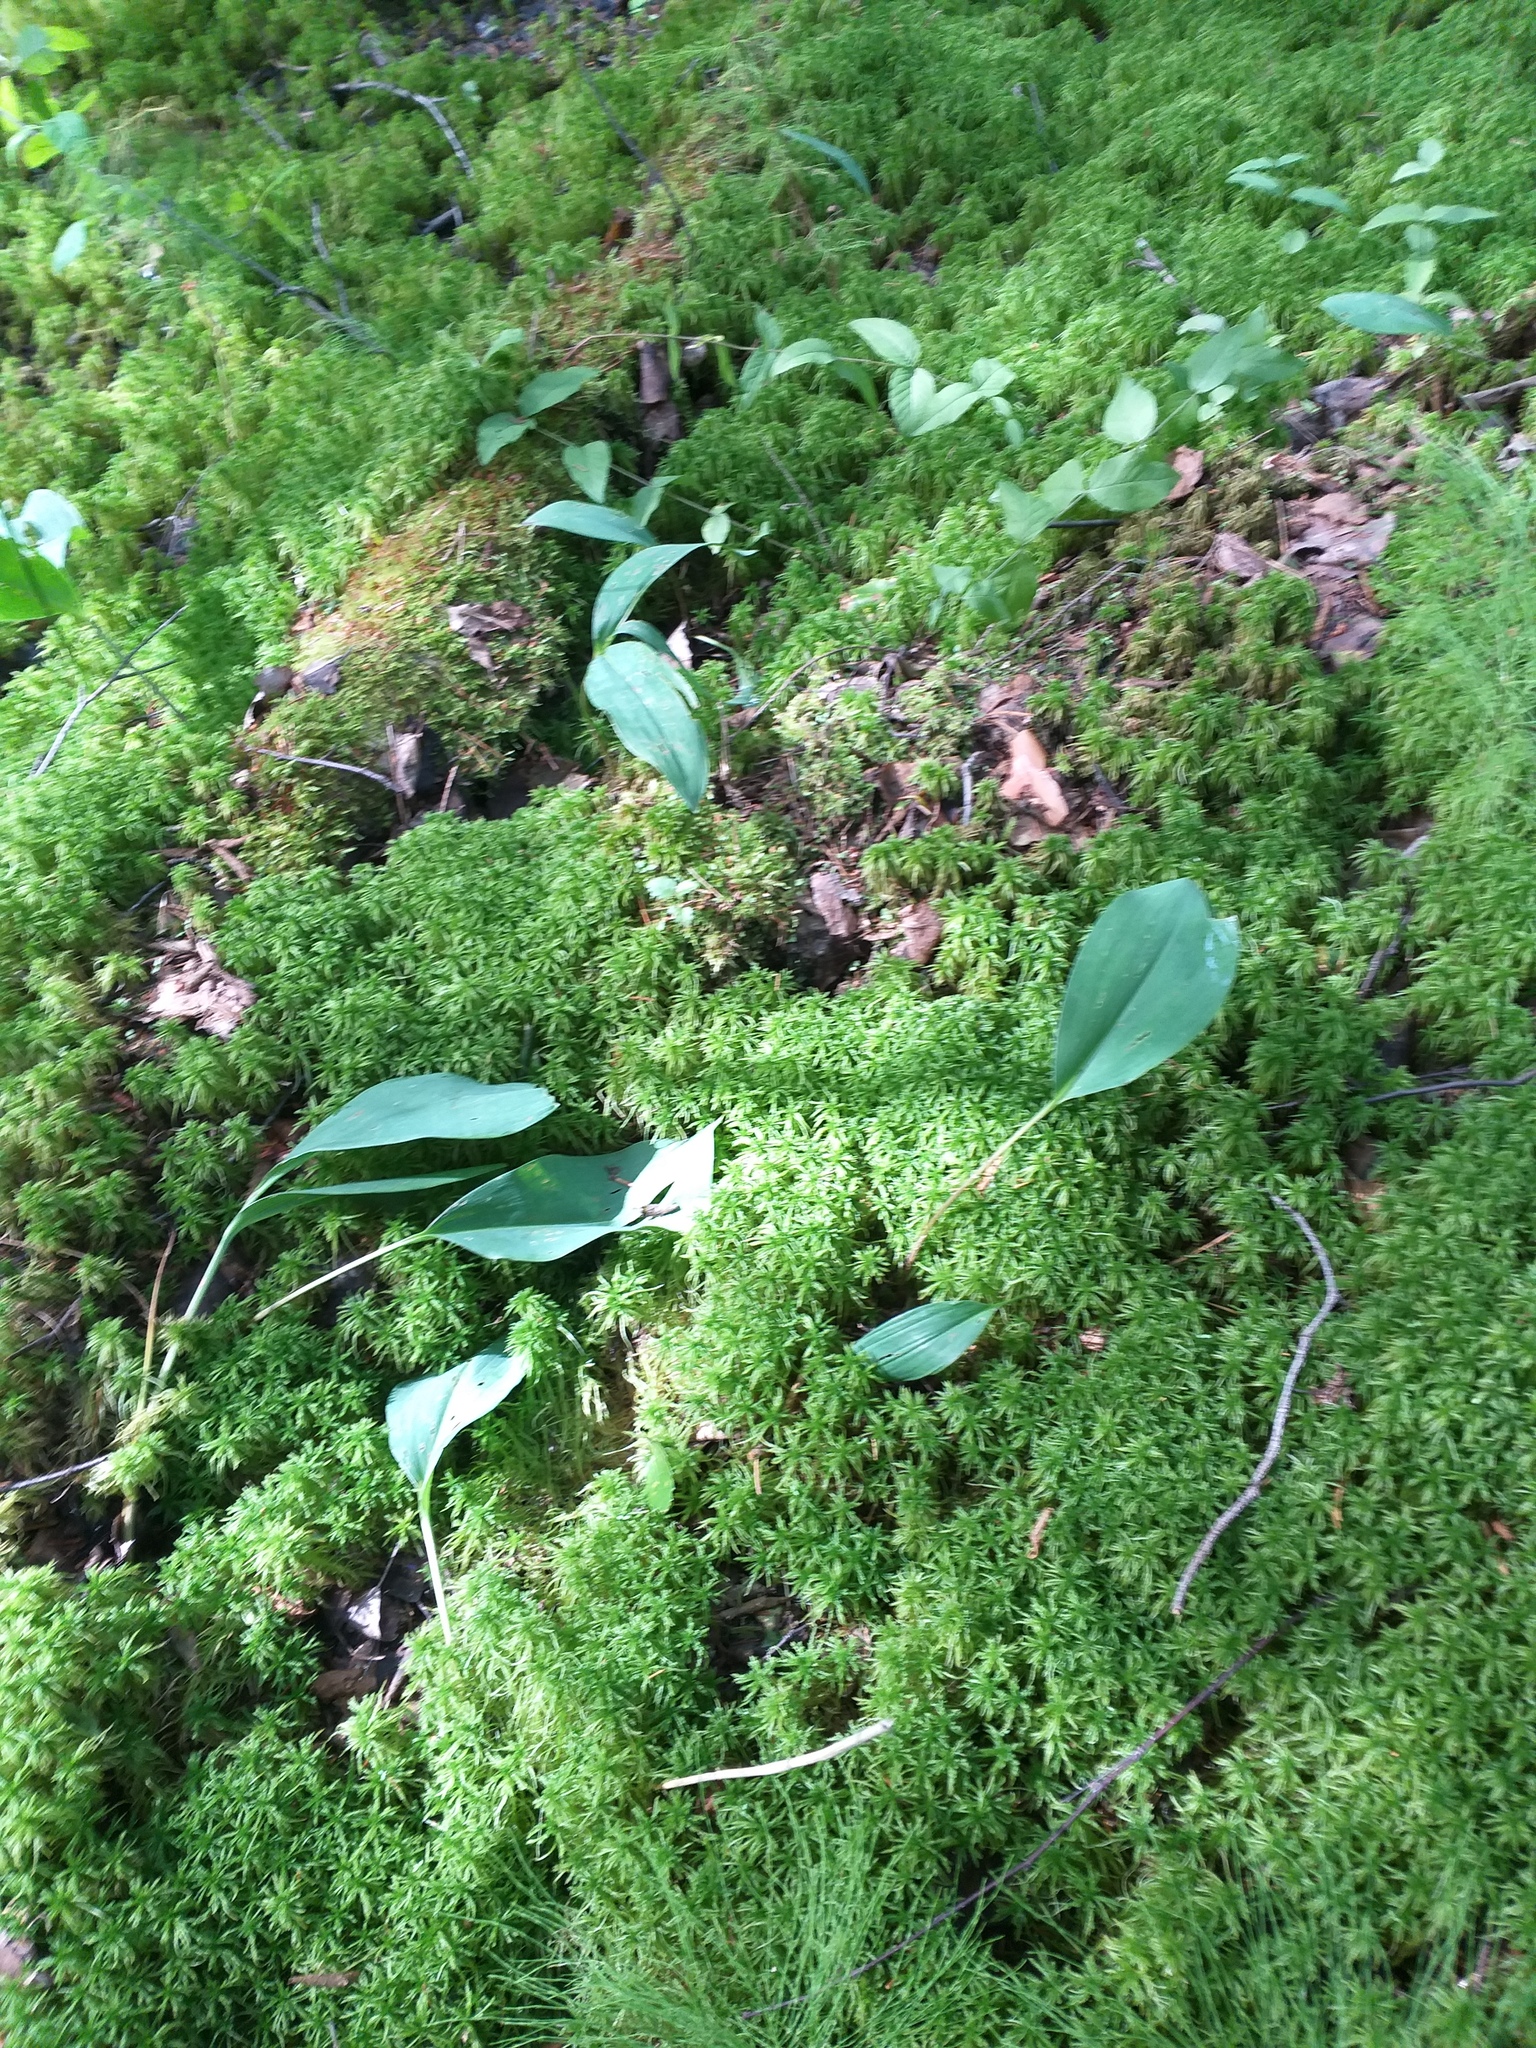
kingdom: Plantae
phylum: Tracheophyta
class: Liliopsida
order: Asparagales
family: Asparagaceae
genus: Convallaria
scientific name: Convallaria majalis
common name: Lily-of-the-valley
